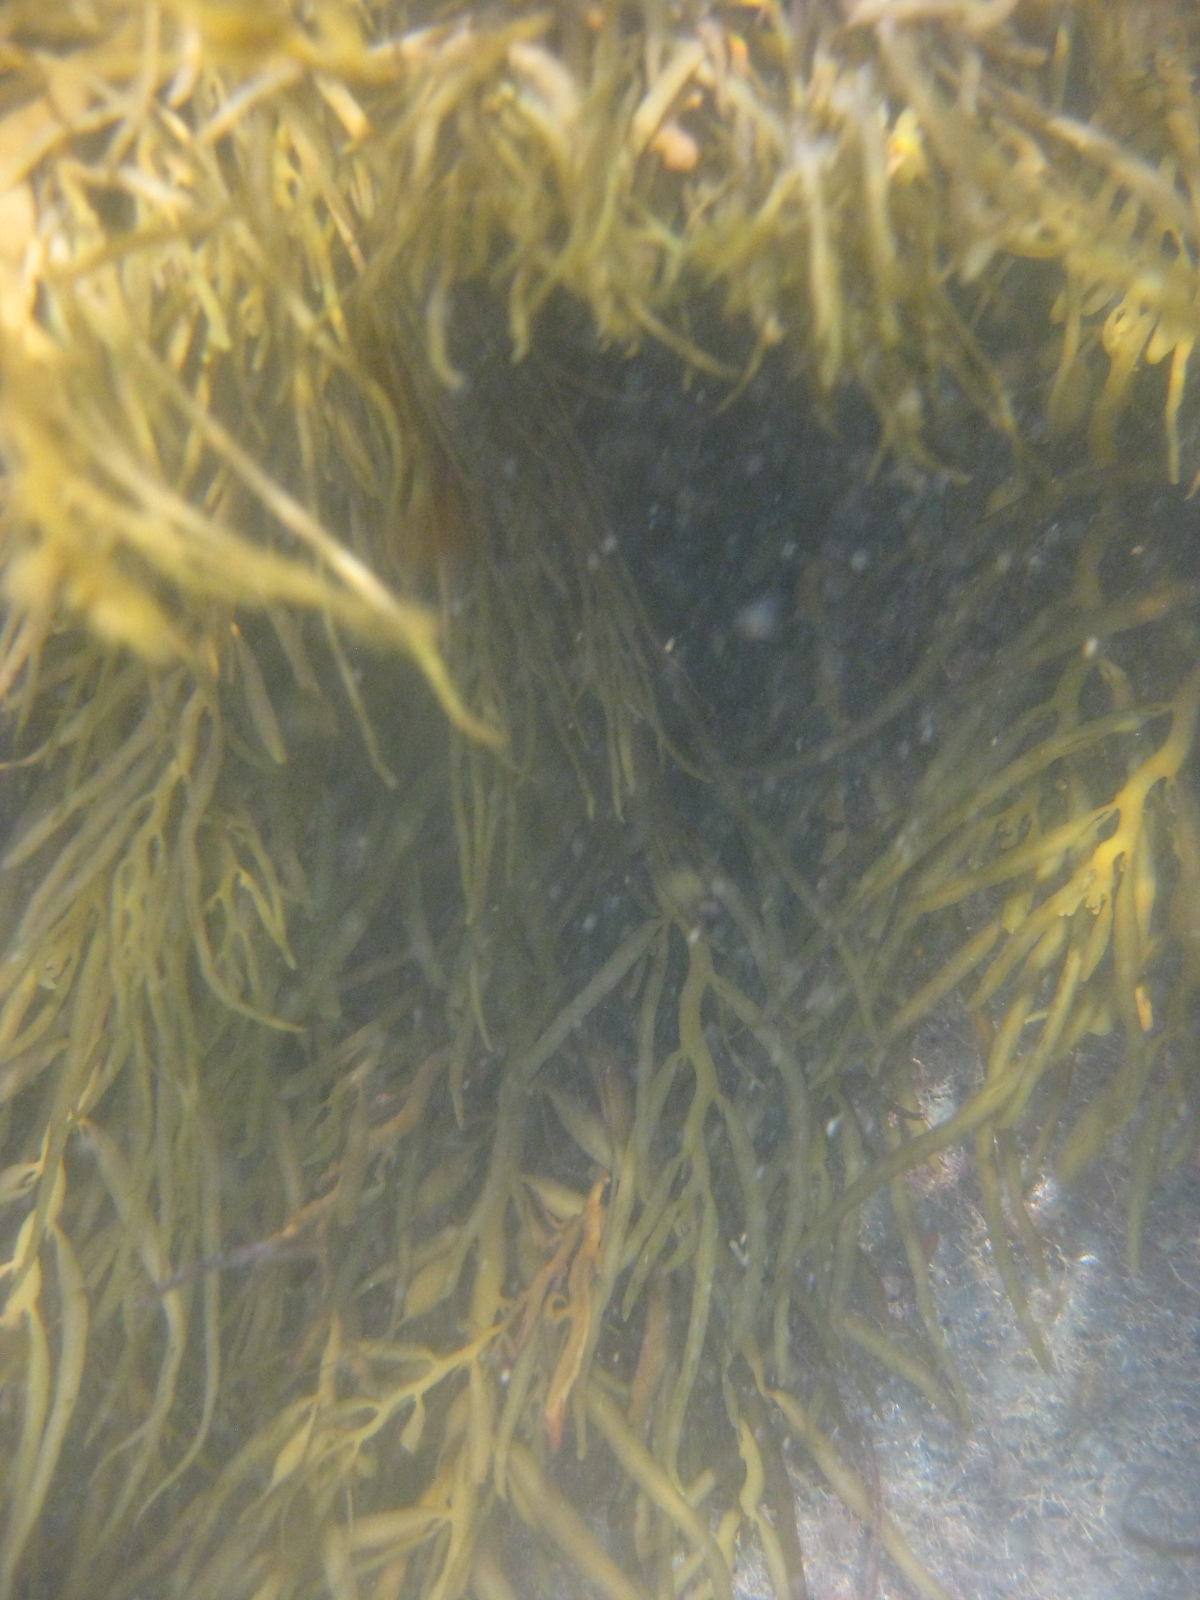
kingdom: Chromista
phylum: Ochrophyta
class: Phaeophyceae
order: Fucales
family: Sargassaceae
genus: Carpophyllum
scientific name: Carpophyllum flexuosum
